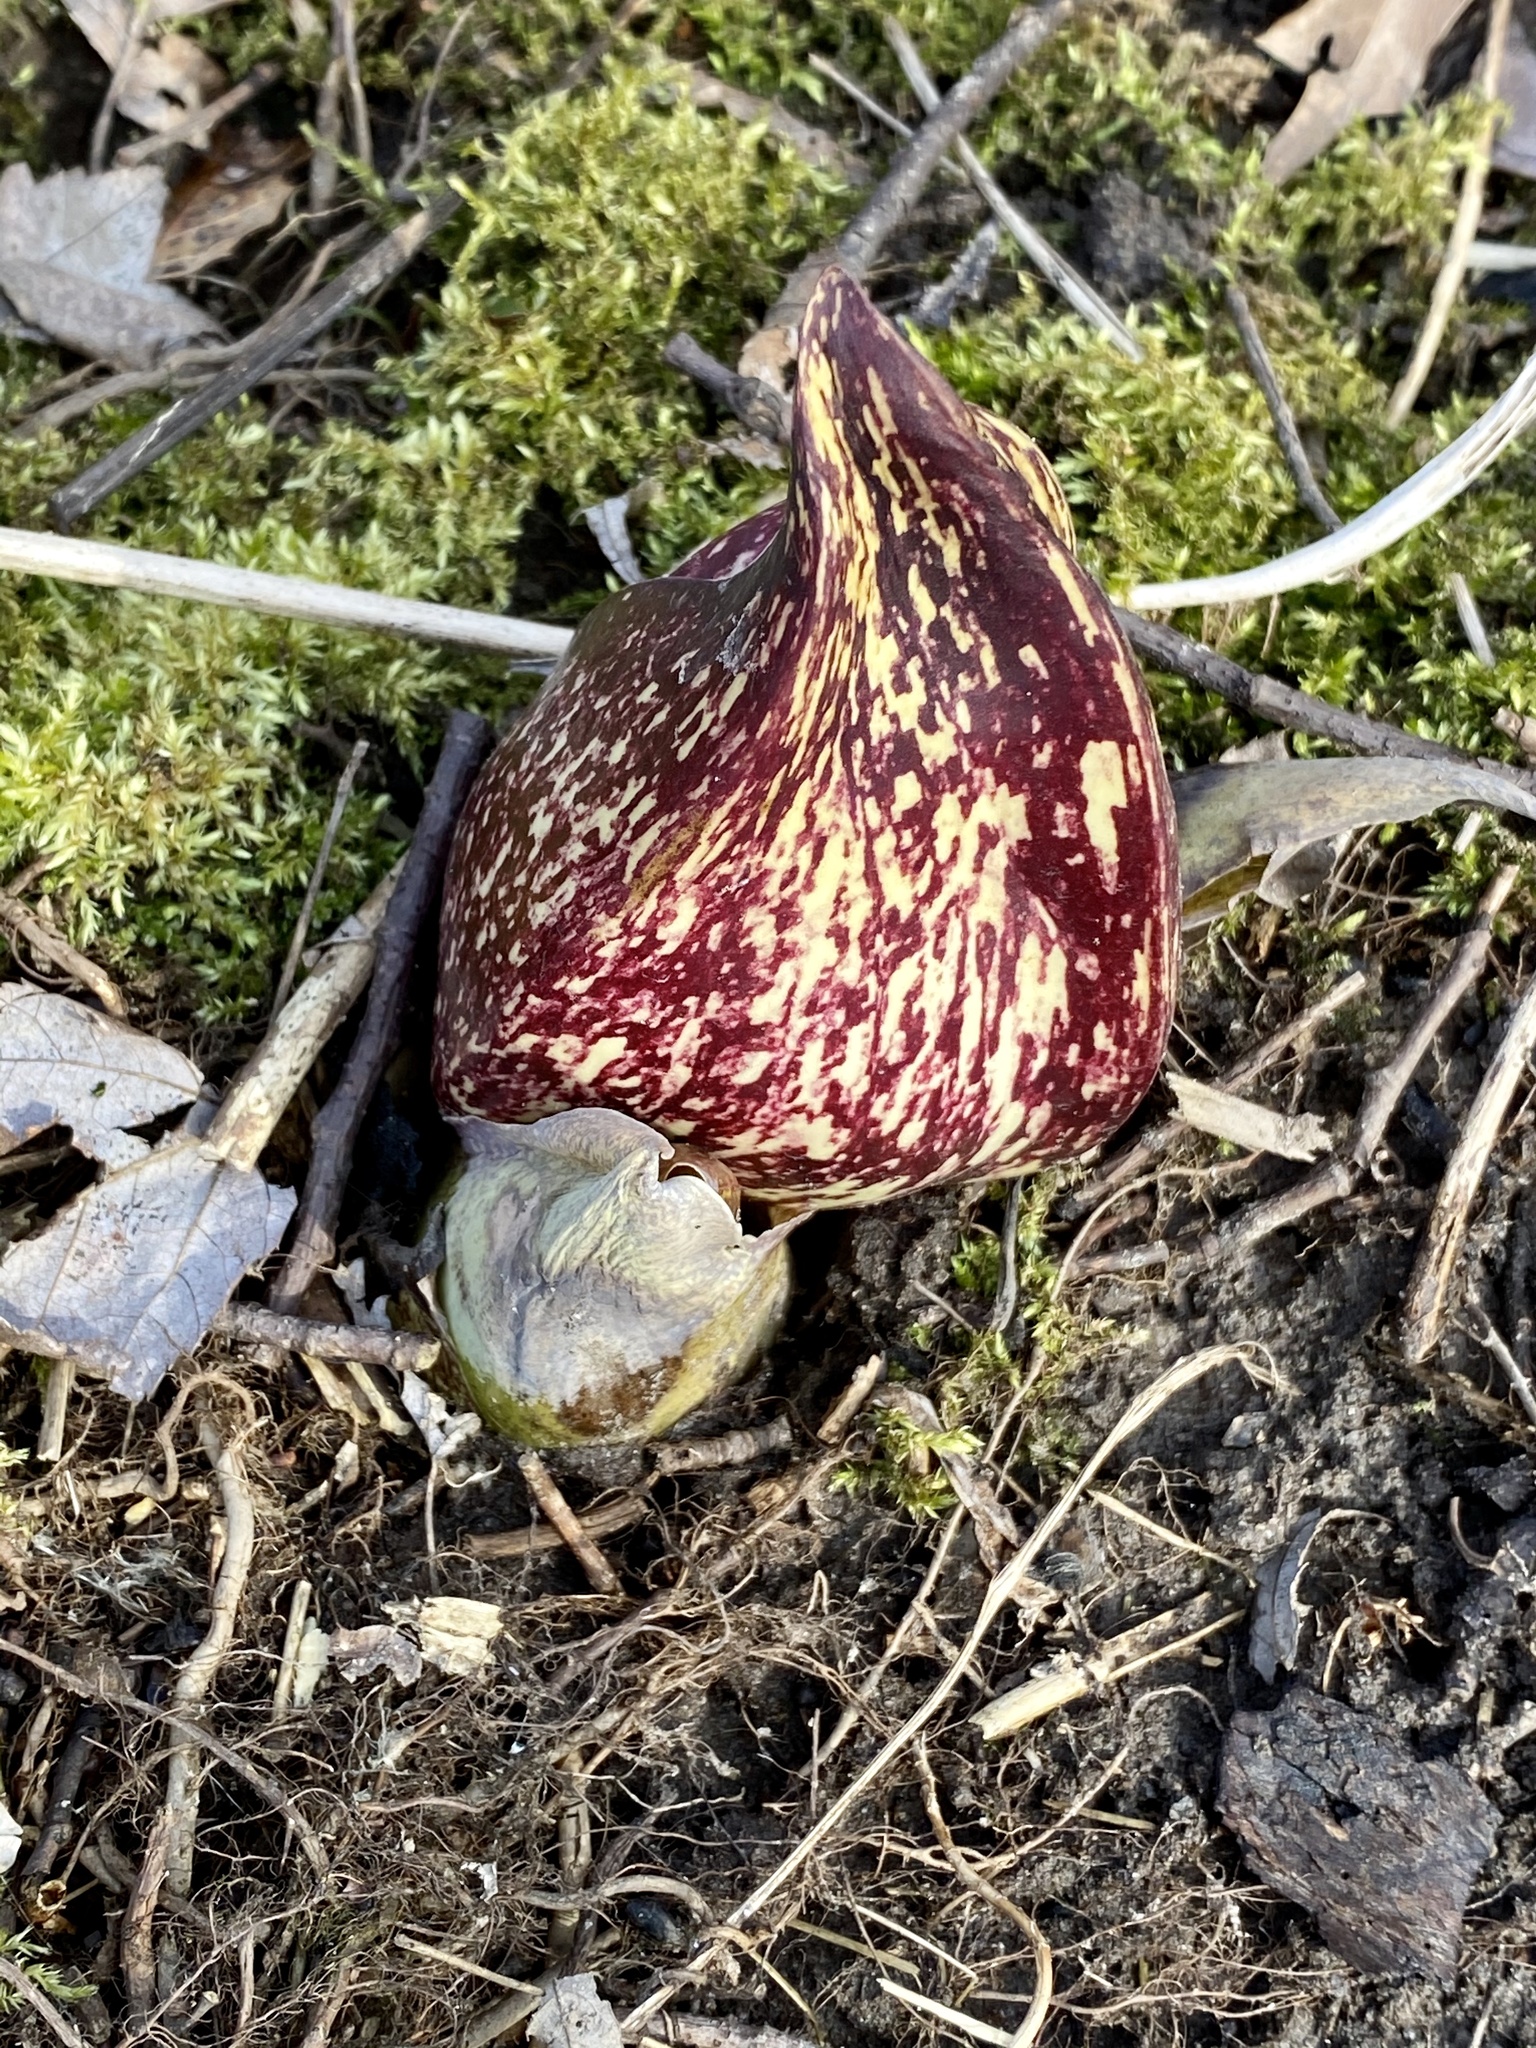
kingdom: Plantae
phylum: Tracheophyta
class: Liliopsida
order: Alismatales
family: Araceae
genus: Symplocarpus
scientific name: Symplocarpus foetidus
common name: Eastern skunk cabbage
